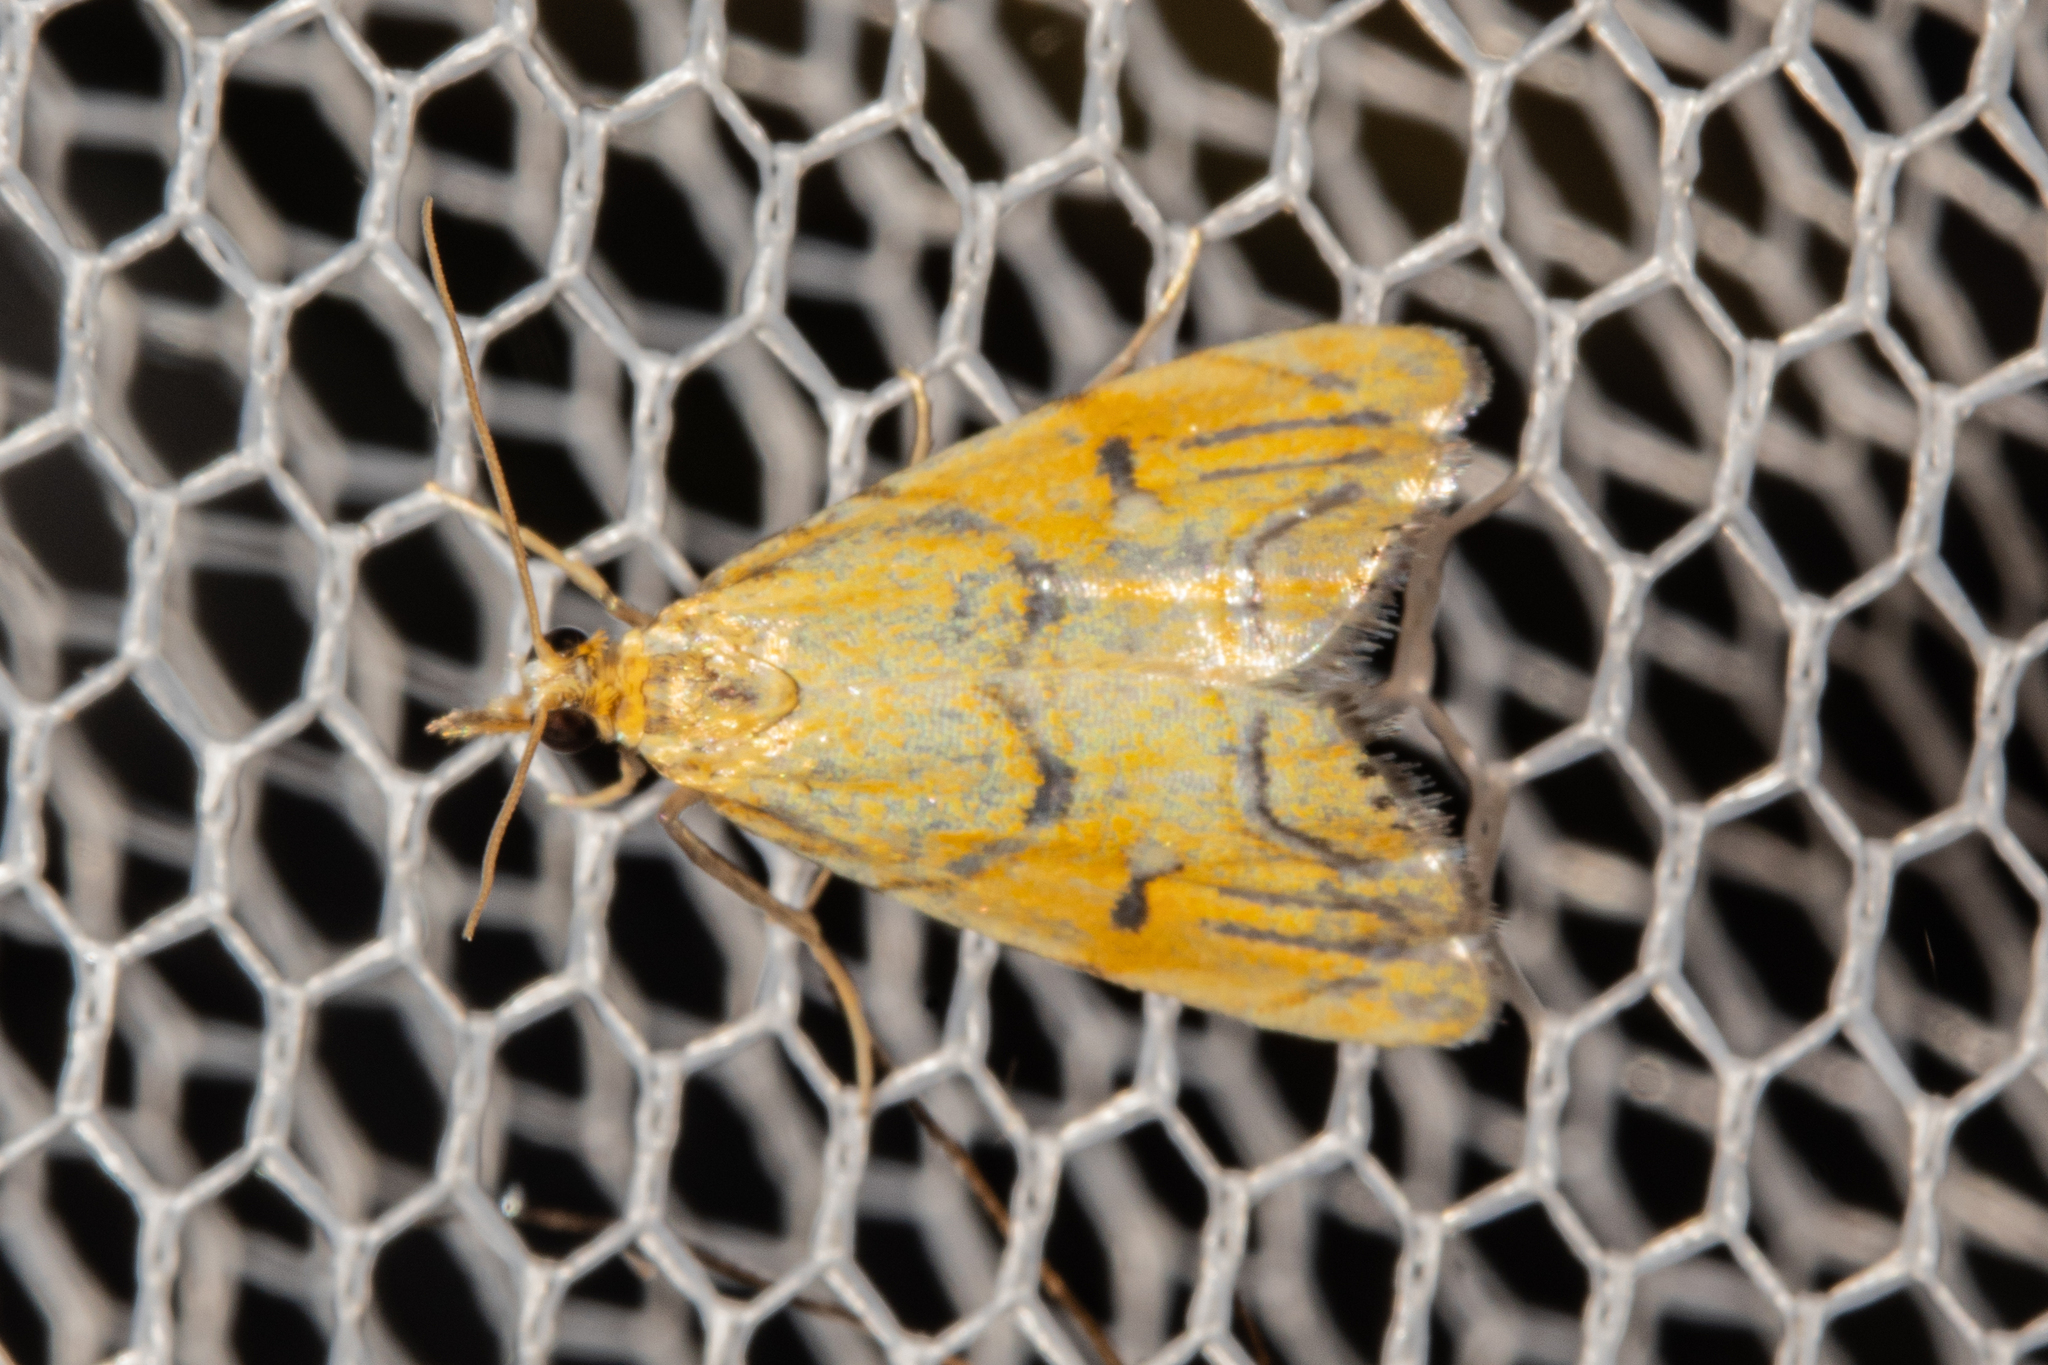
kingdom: Animalia
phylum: Arthropoda
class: Insecta
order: Lepidoptera
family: Crambidae
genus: Glaucocharis
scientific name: Glaucocharis auriscriptella
